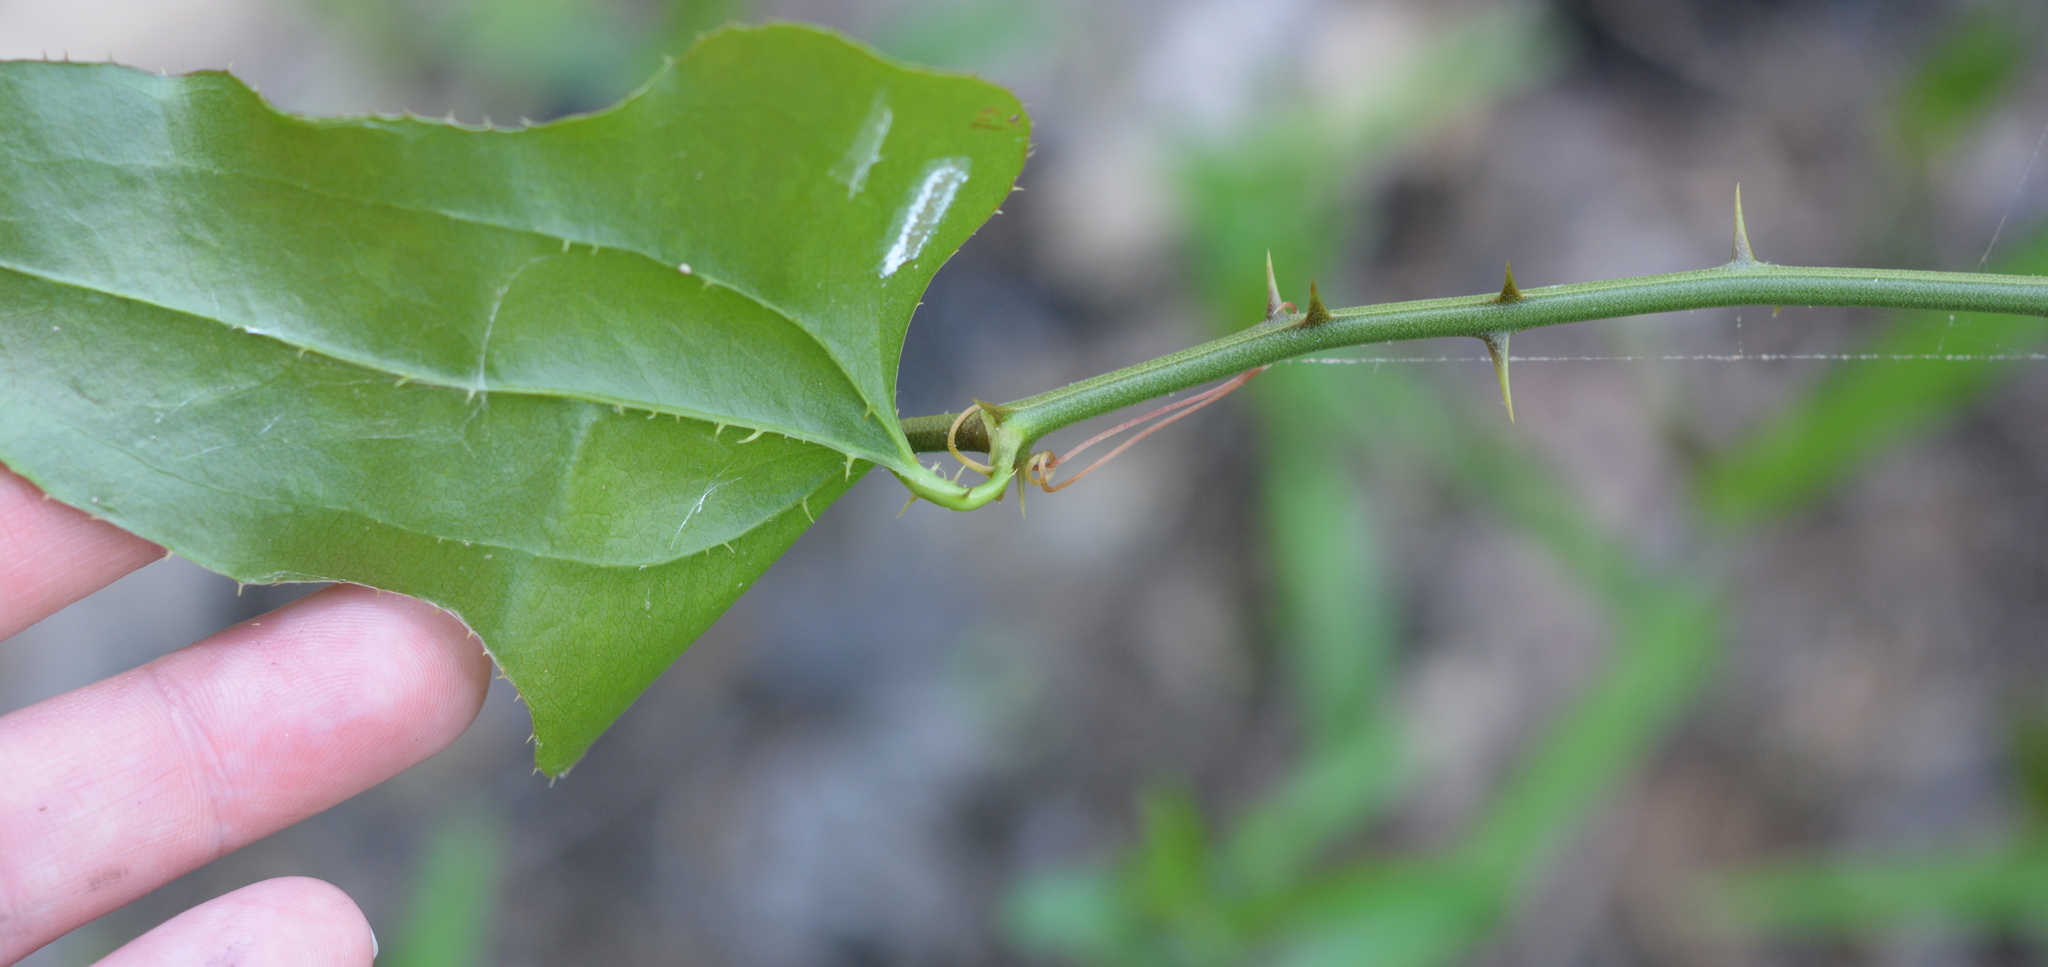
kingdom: Plantae
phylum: Tracheophyta
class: Liliopsida
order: Liliales
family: Smilacaceae
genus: Smilax
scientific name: Smilax bona-nox
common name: Catbrier
